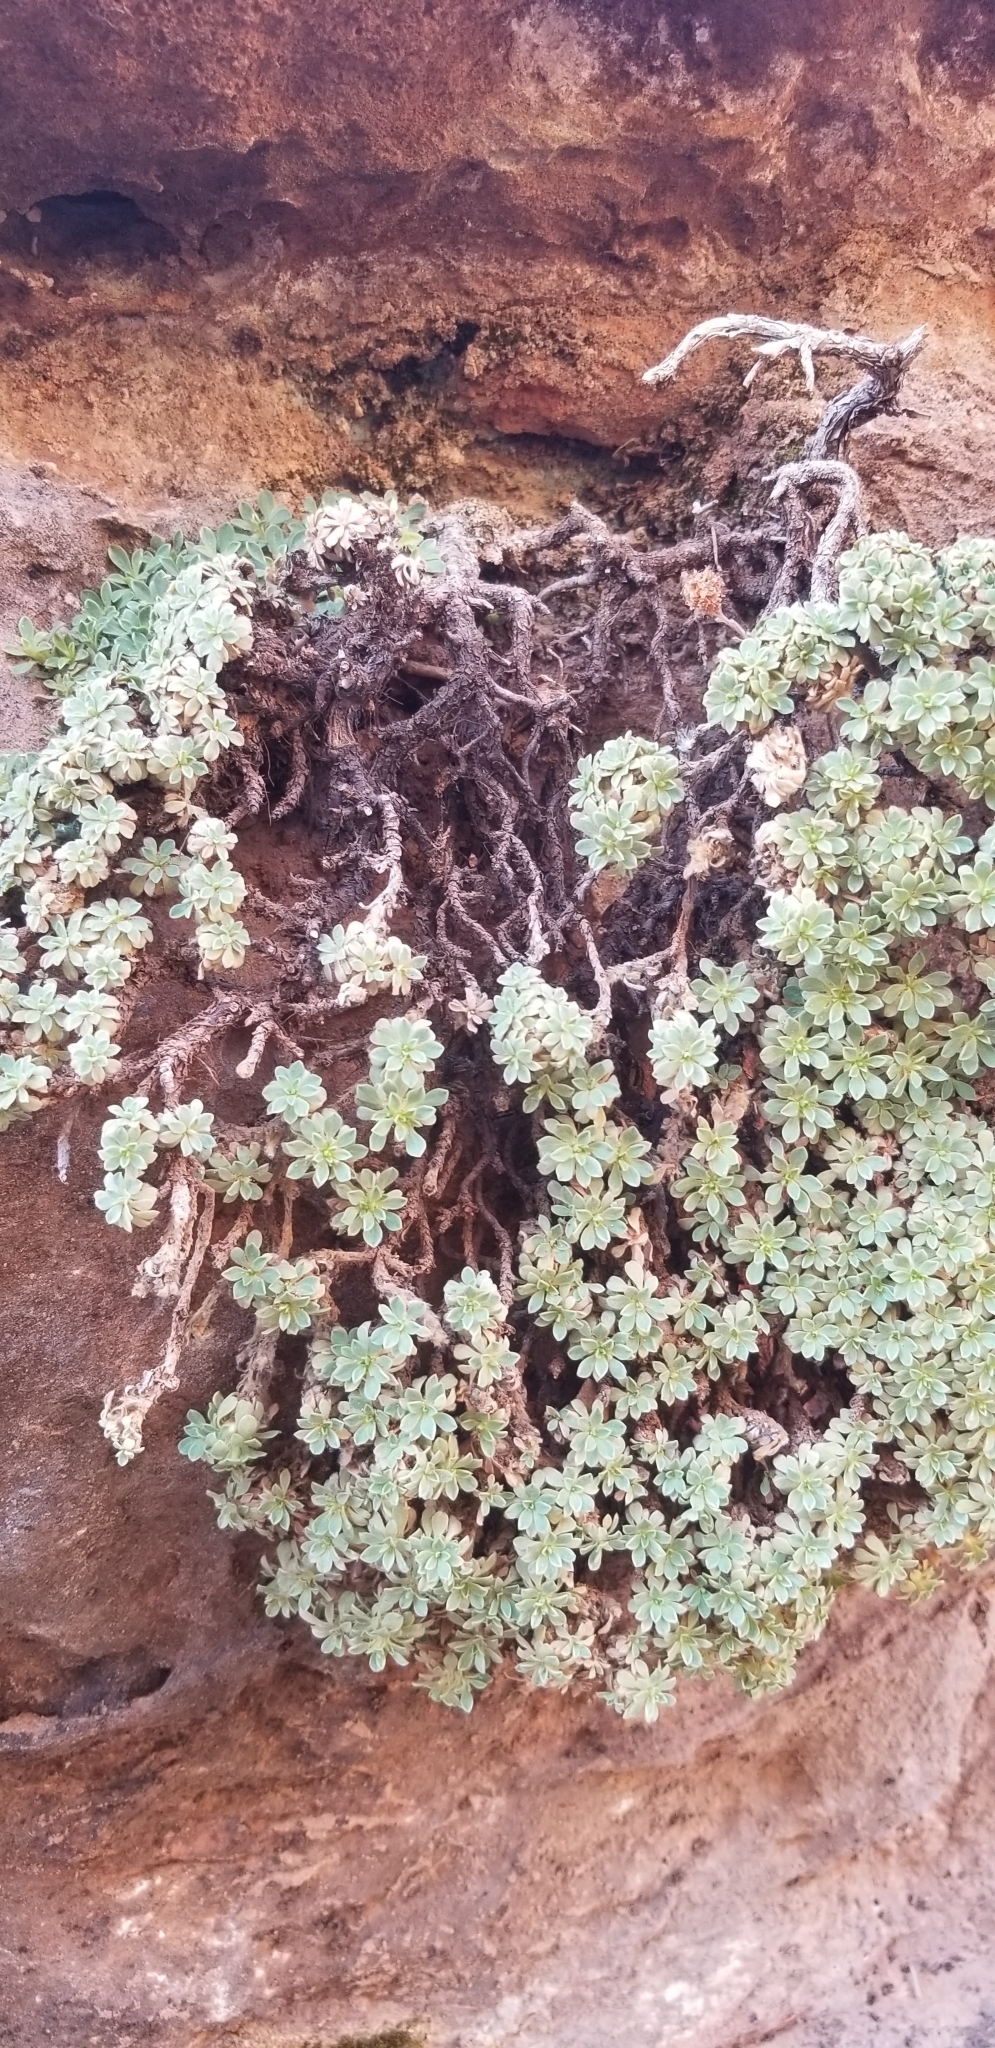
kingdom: Plantae
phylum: Tracheophyta
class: Magnoliopsida
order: Rosales
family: Rosaceae
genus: Petrophytum
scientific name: Petrophytum caespitosum
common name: Mat rockspirea
